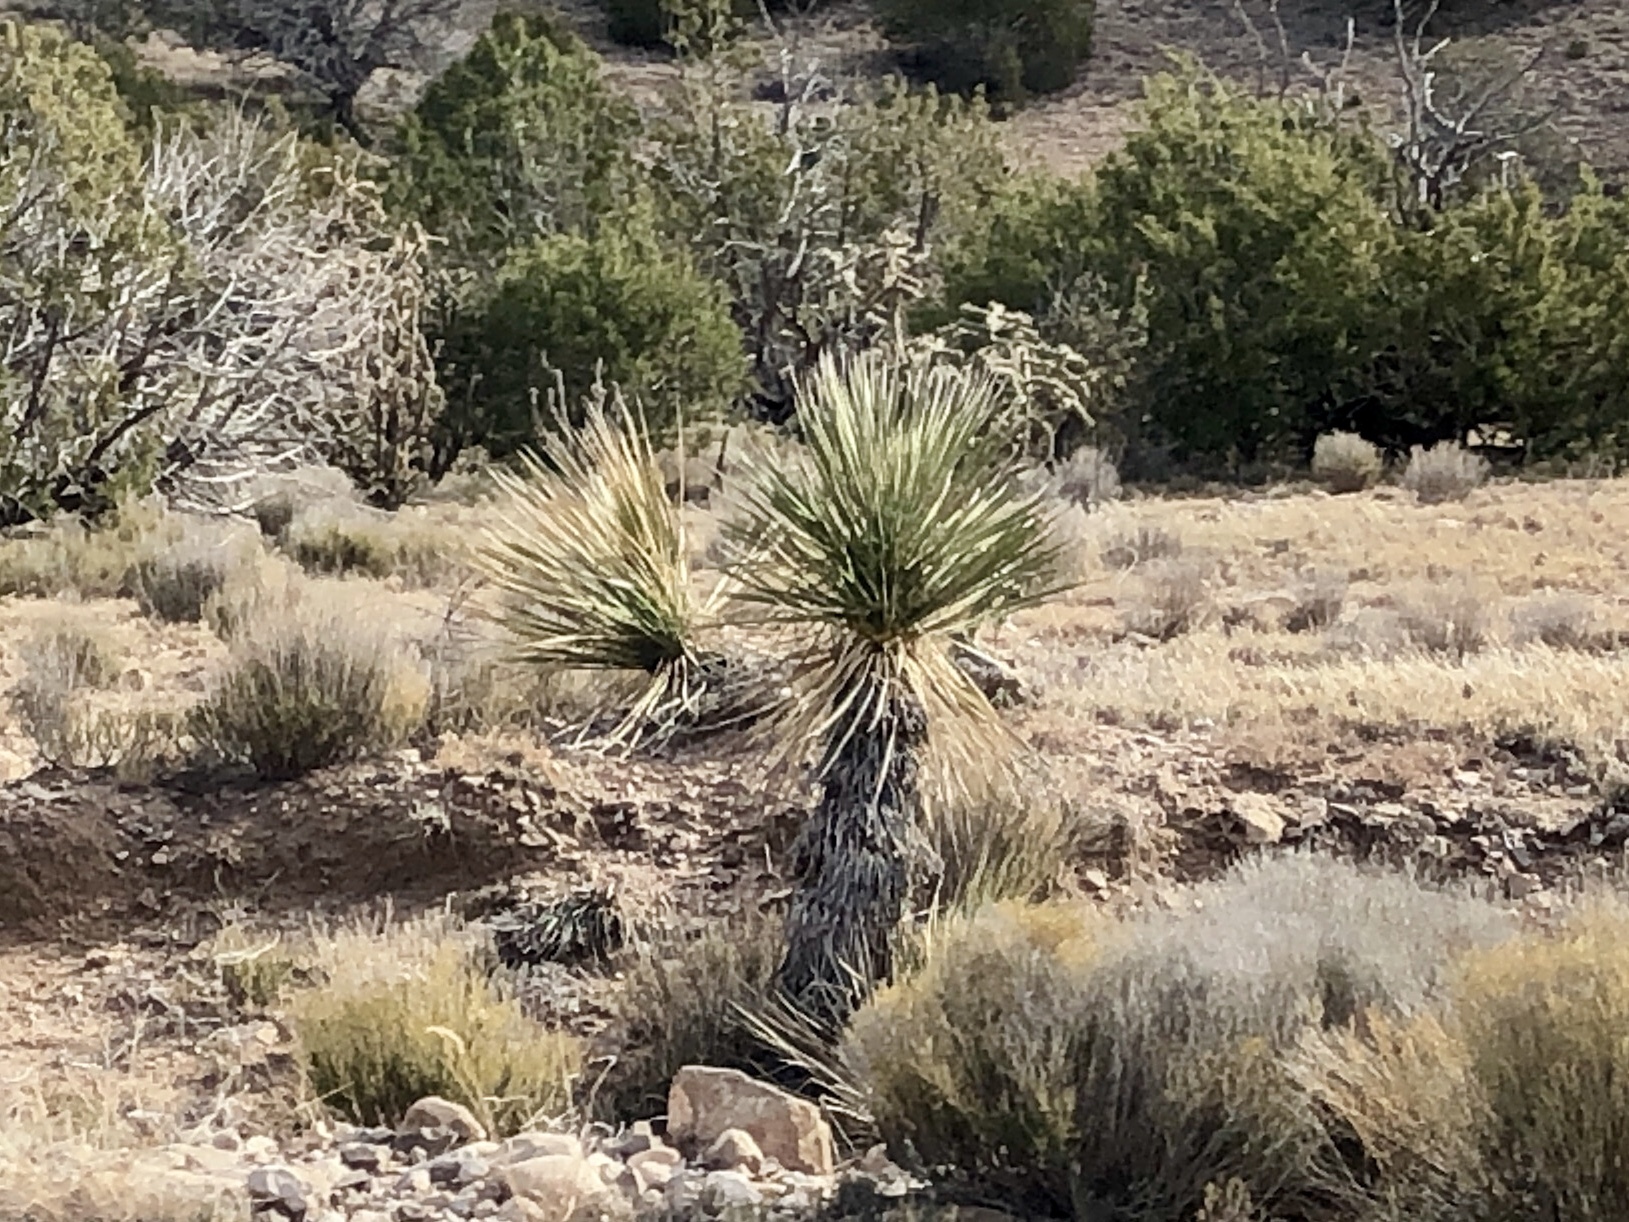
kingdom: Plantae
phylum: Tracheophyta
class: Liliopsida
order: Asparagales
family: Asparagaceae
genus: Yucca
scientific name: Yucca elata
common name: Palmella
